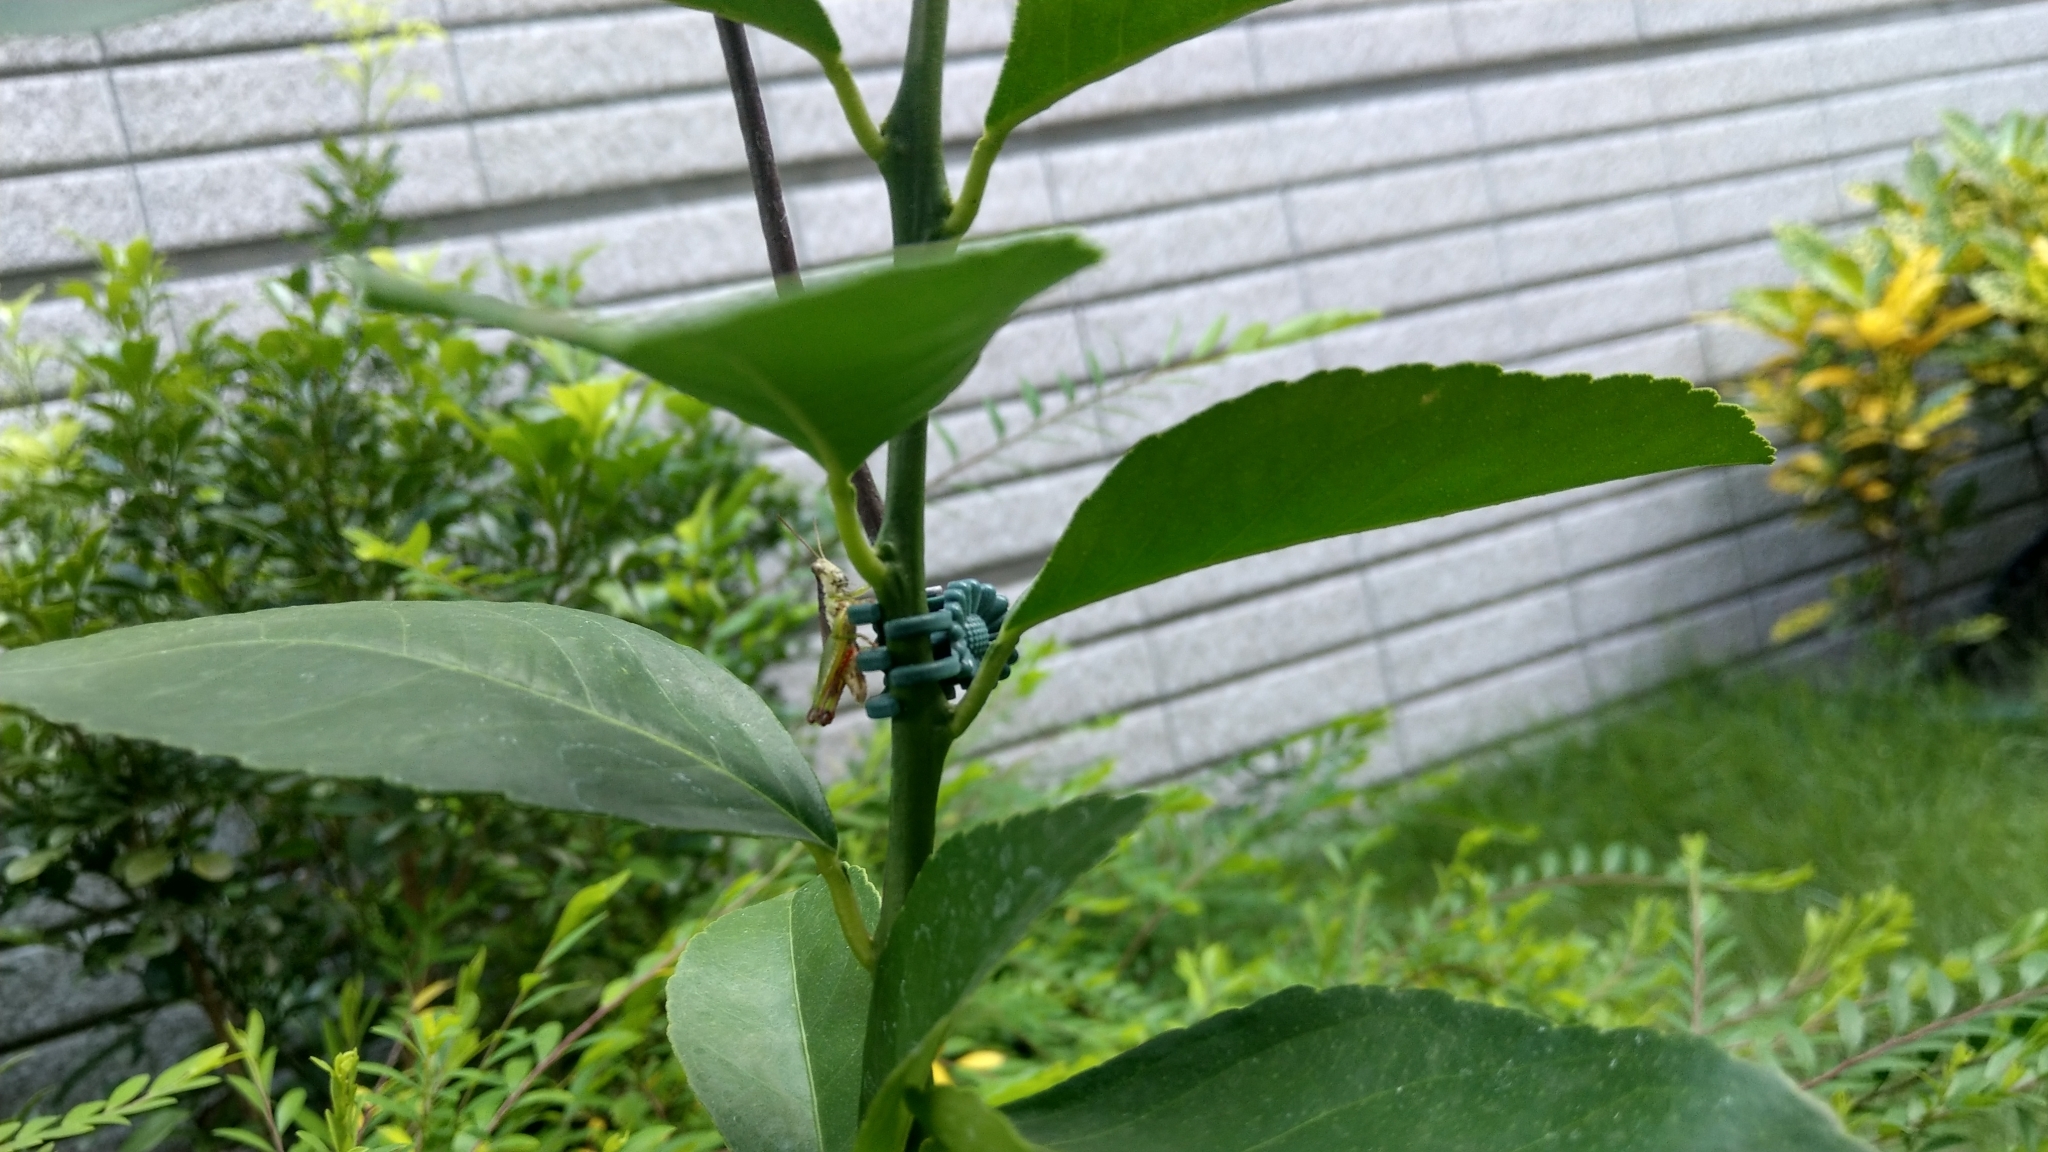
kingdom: Animalia
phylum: Arthropoda
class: Insecta
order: Orthoptera
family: Acrididae
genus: Pseudoxya
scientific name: Pseudoxya diminuta
